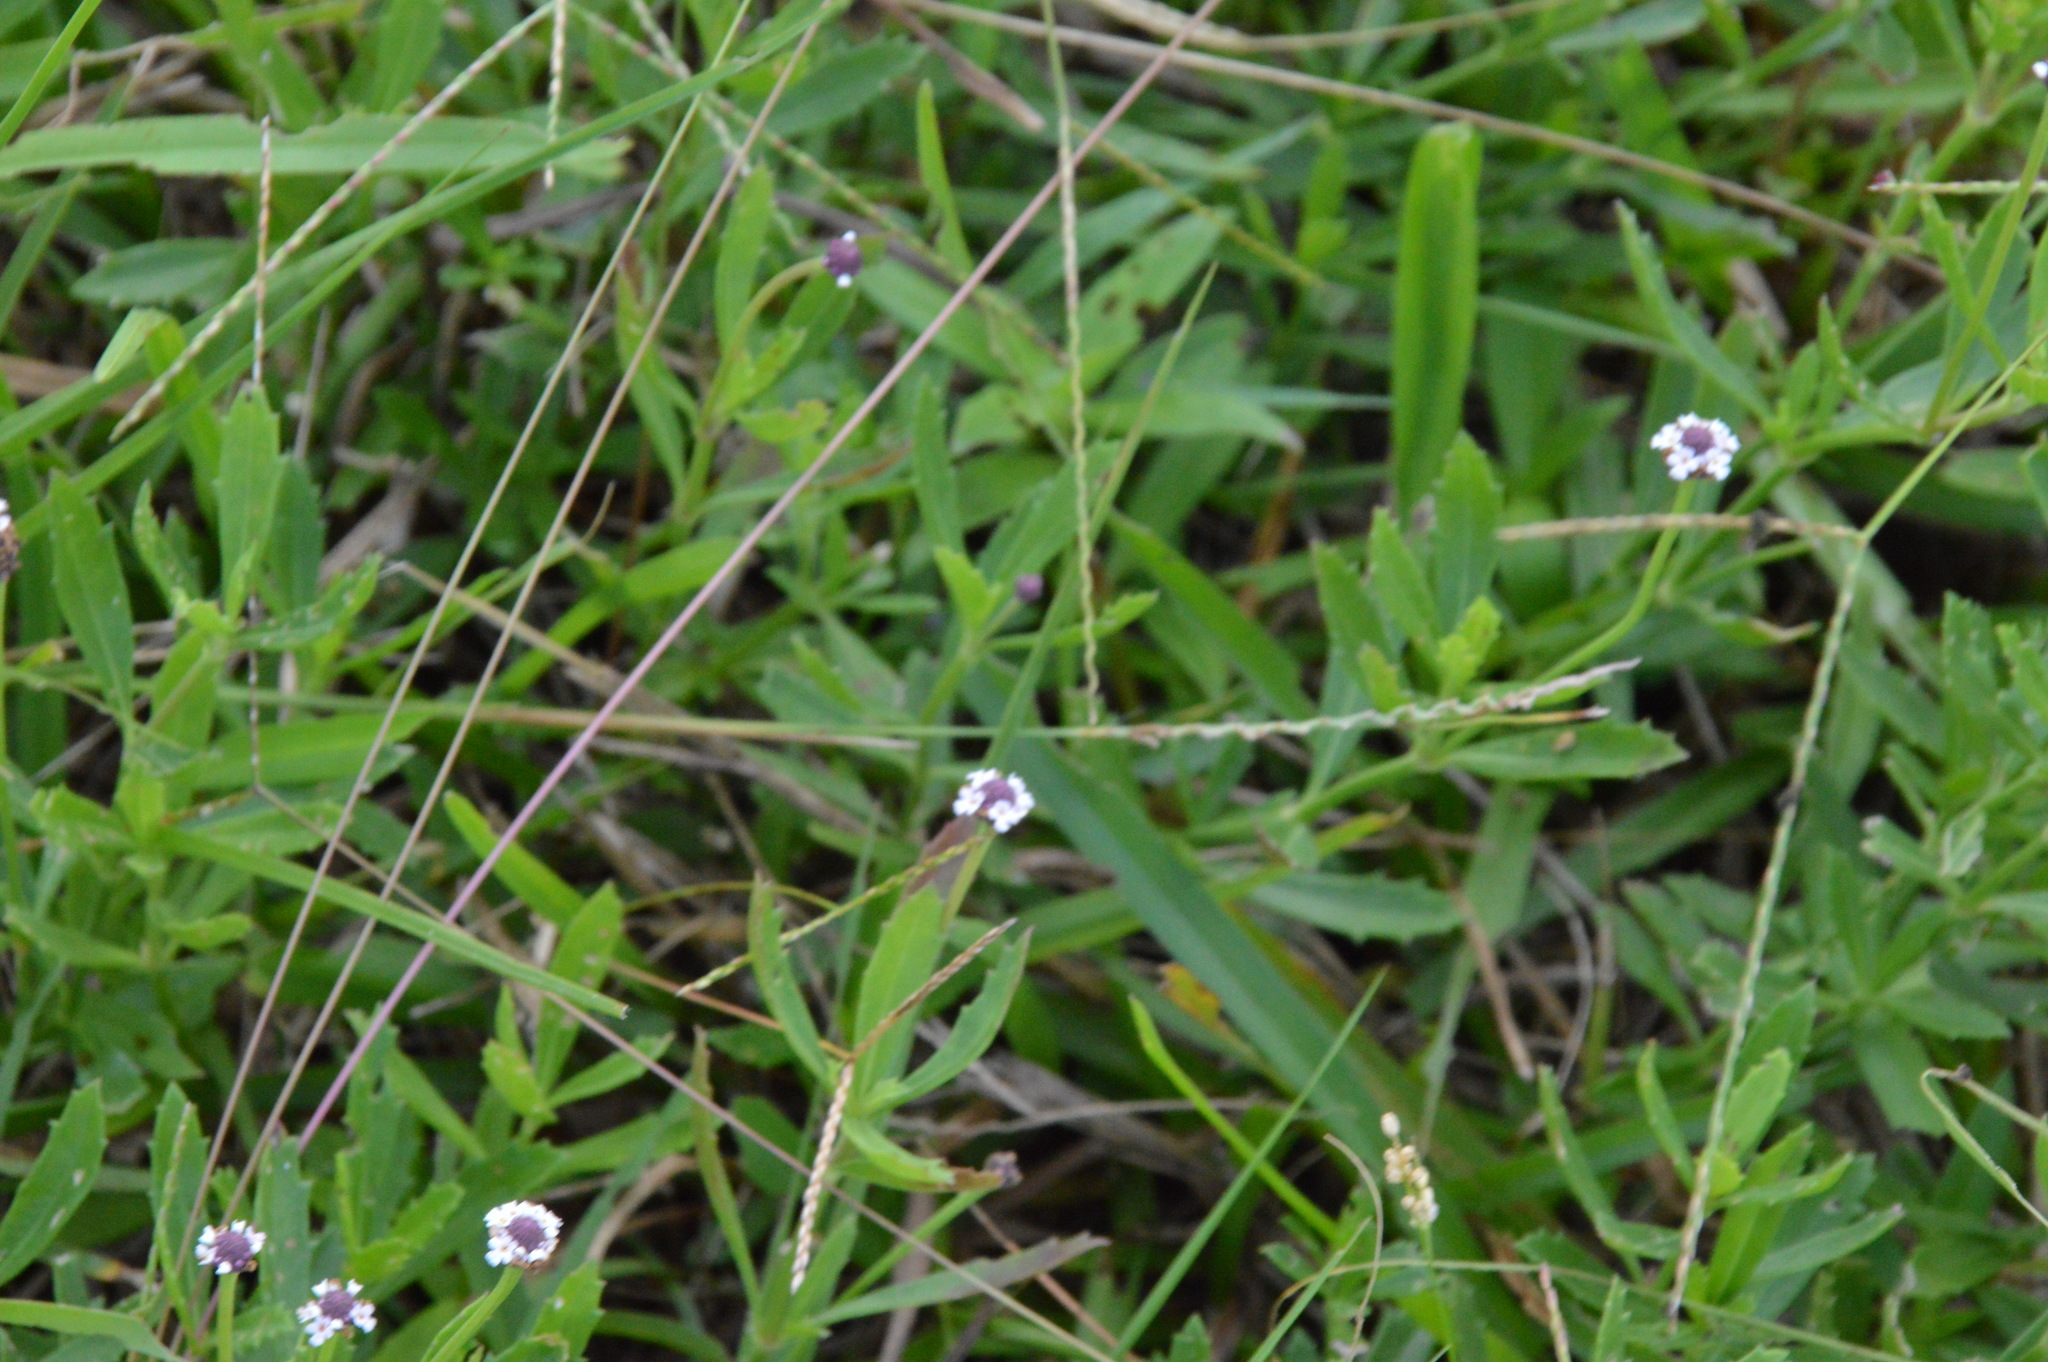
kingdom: Plantae
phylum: Tracheophyta
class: Magnoliopsida
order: Lamiales
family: Verbenaceae
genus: Phyla
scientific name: Phyla nodiflora
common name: Frogfruit
